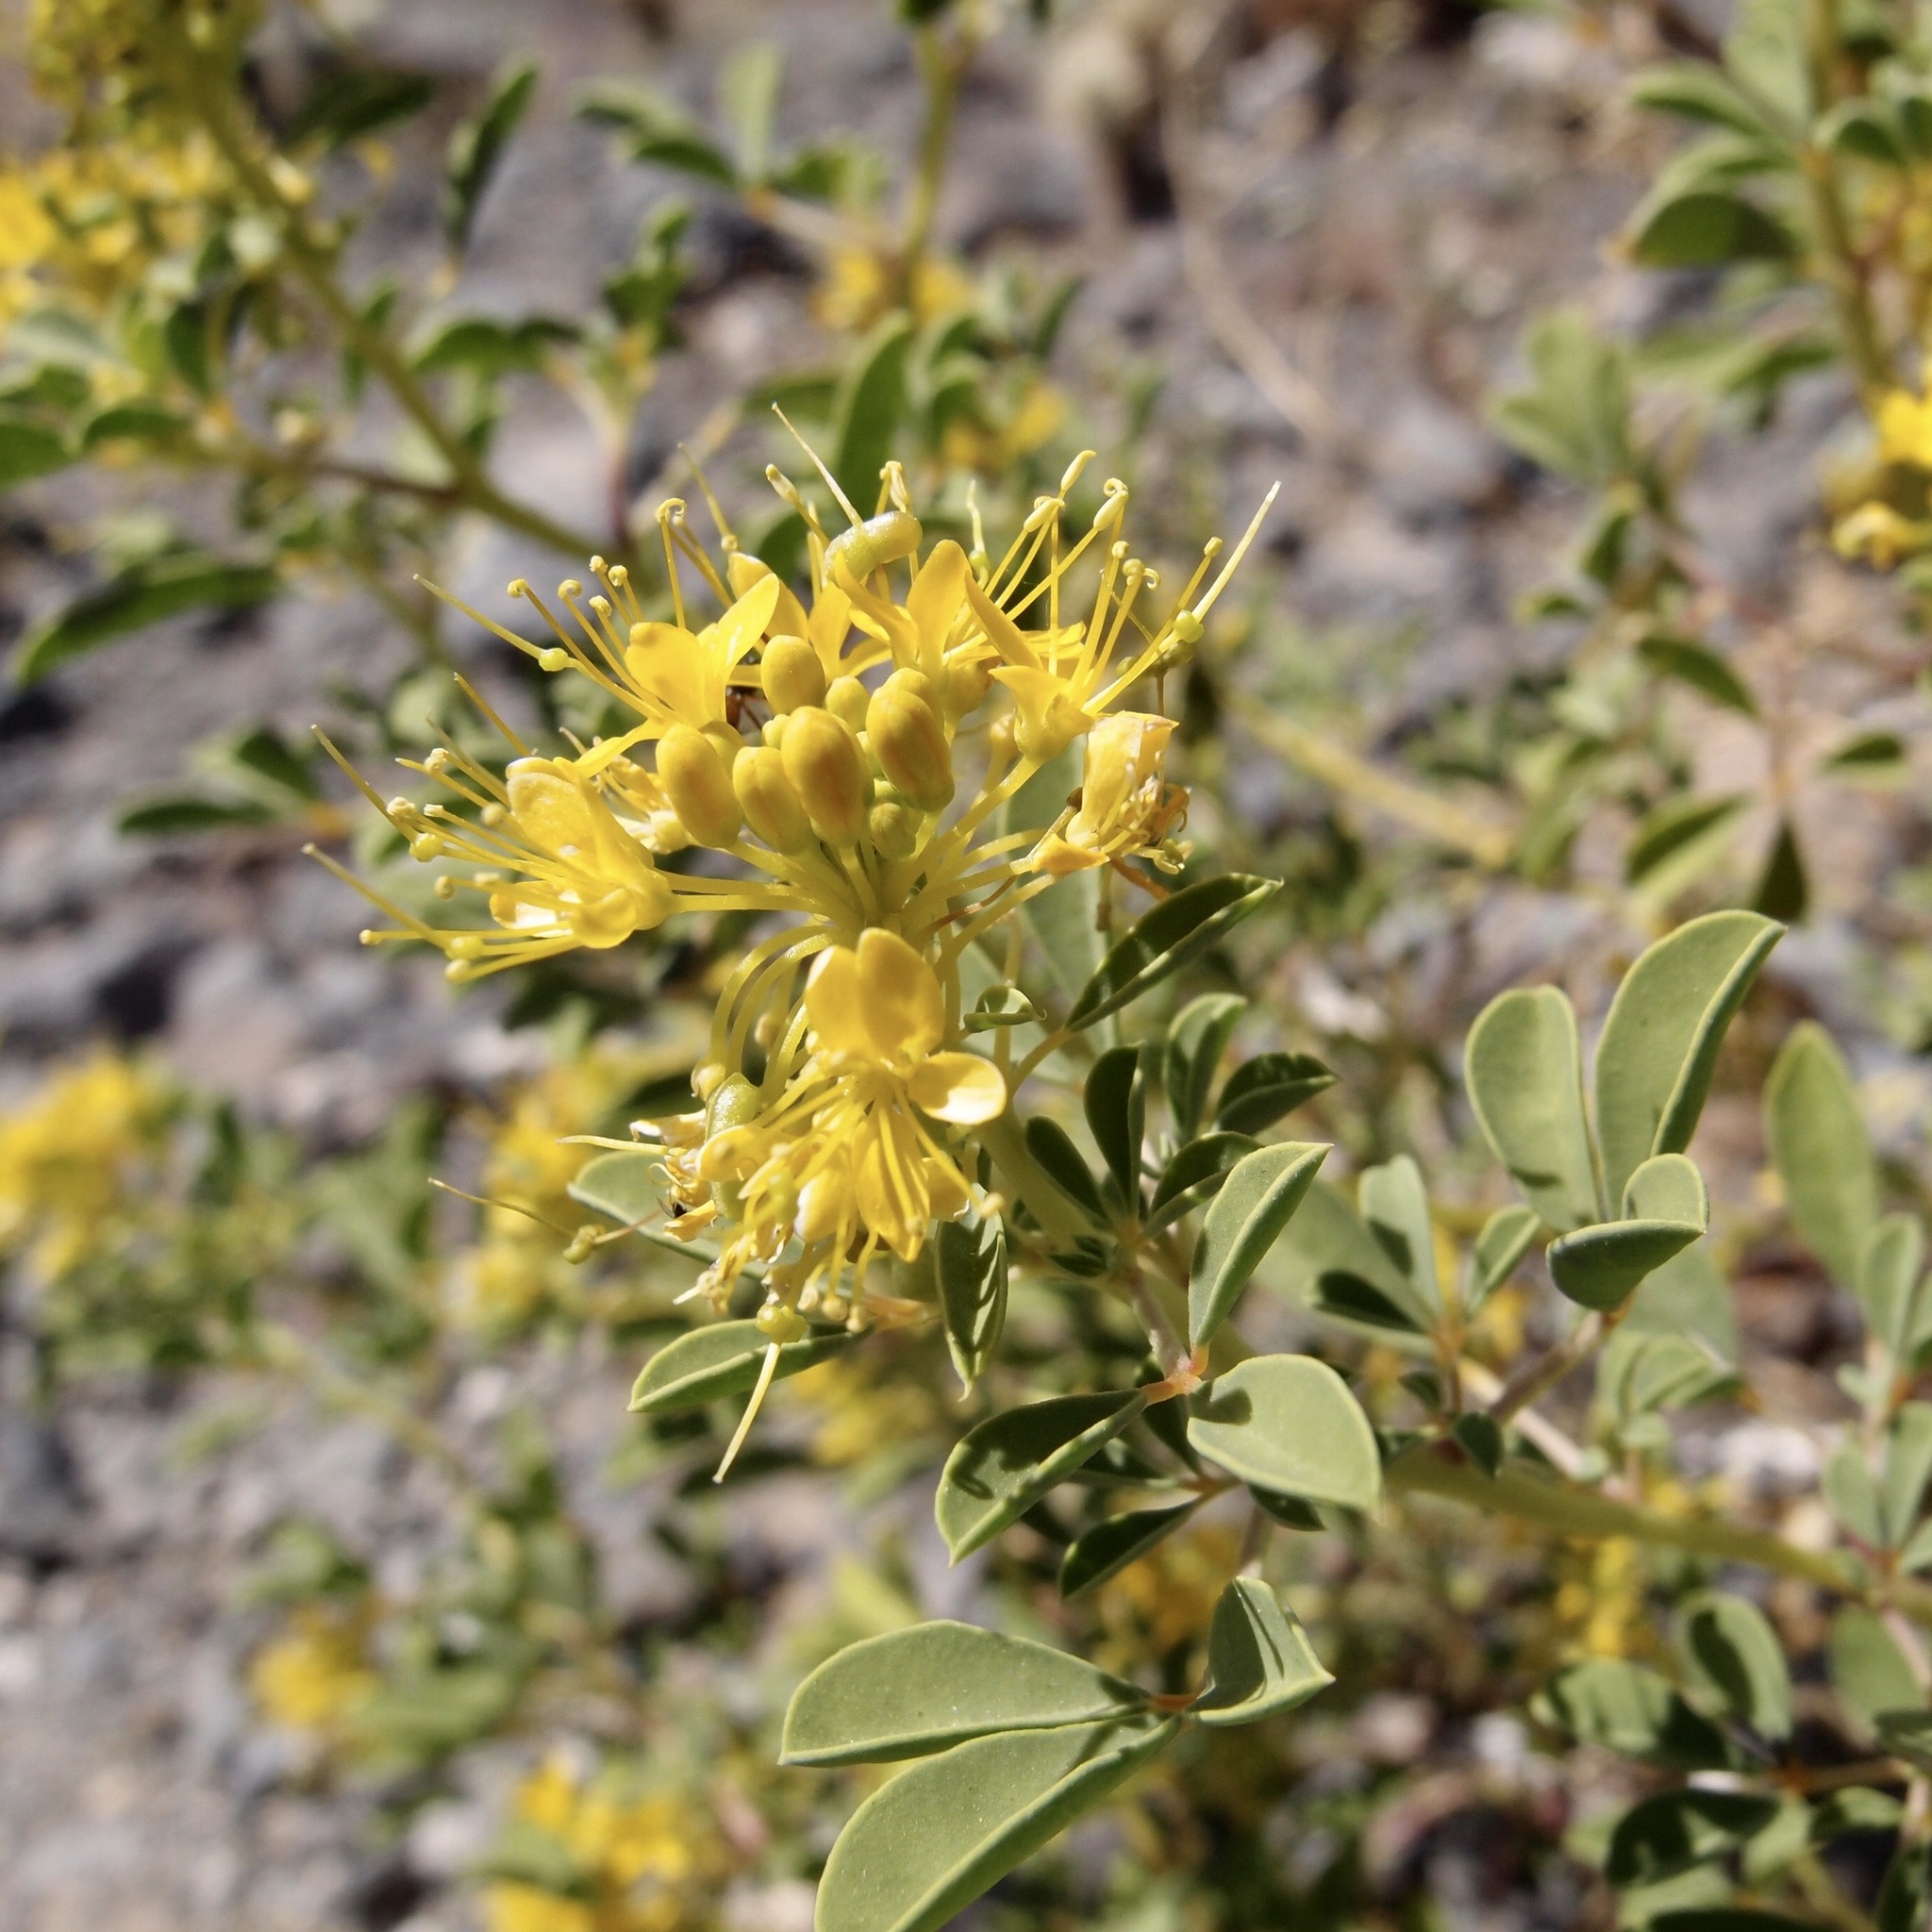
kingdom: Plantae
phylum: Tracheophyta
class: Magnoliopsida
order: Brassicales
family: Cleomaceae
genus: Cleomella
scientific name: Cleomella palmeri
